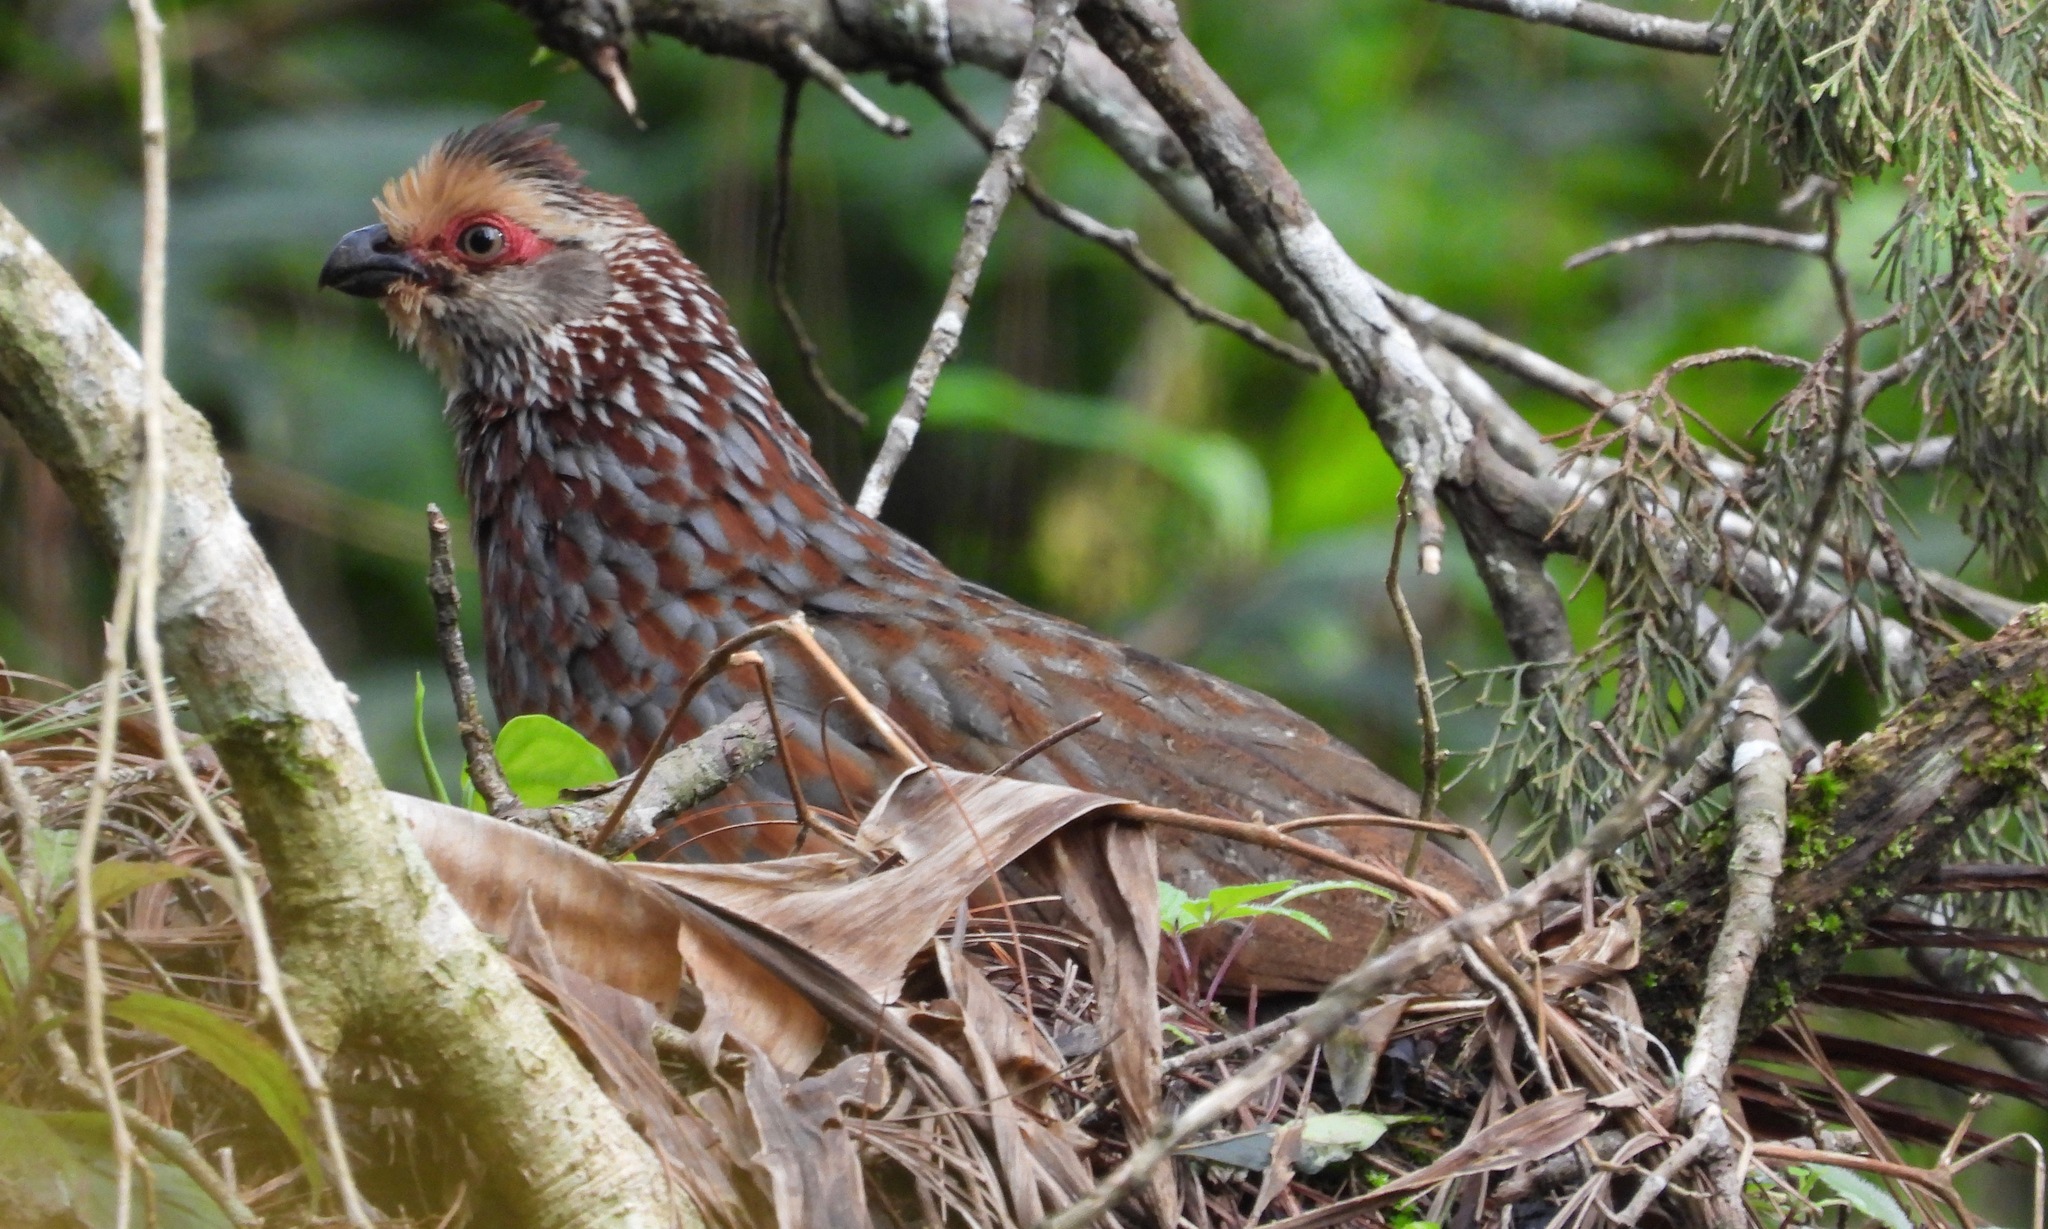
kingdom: Animalia
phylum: Chordata
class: Aves
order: Galliformes
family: Odontophoridae
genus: Dendrortyx
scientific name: Dendrortyx leucophrys
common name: Buffy-crowned wood-partridge
